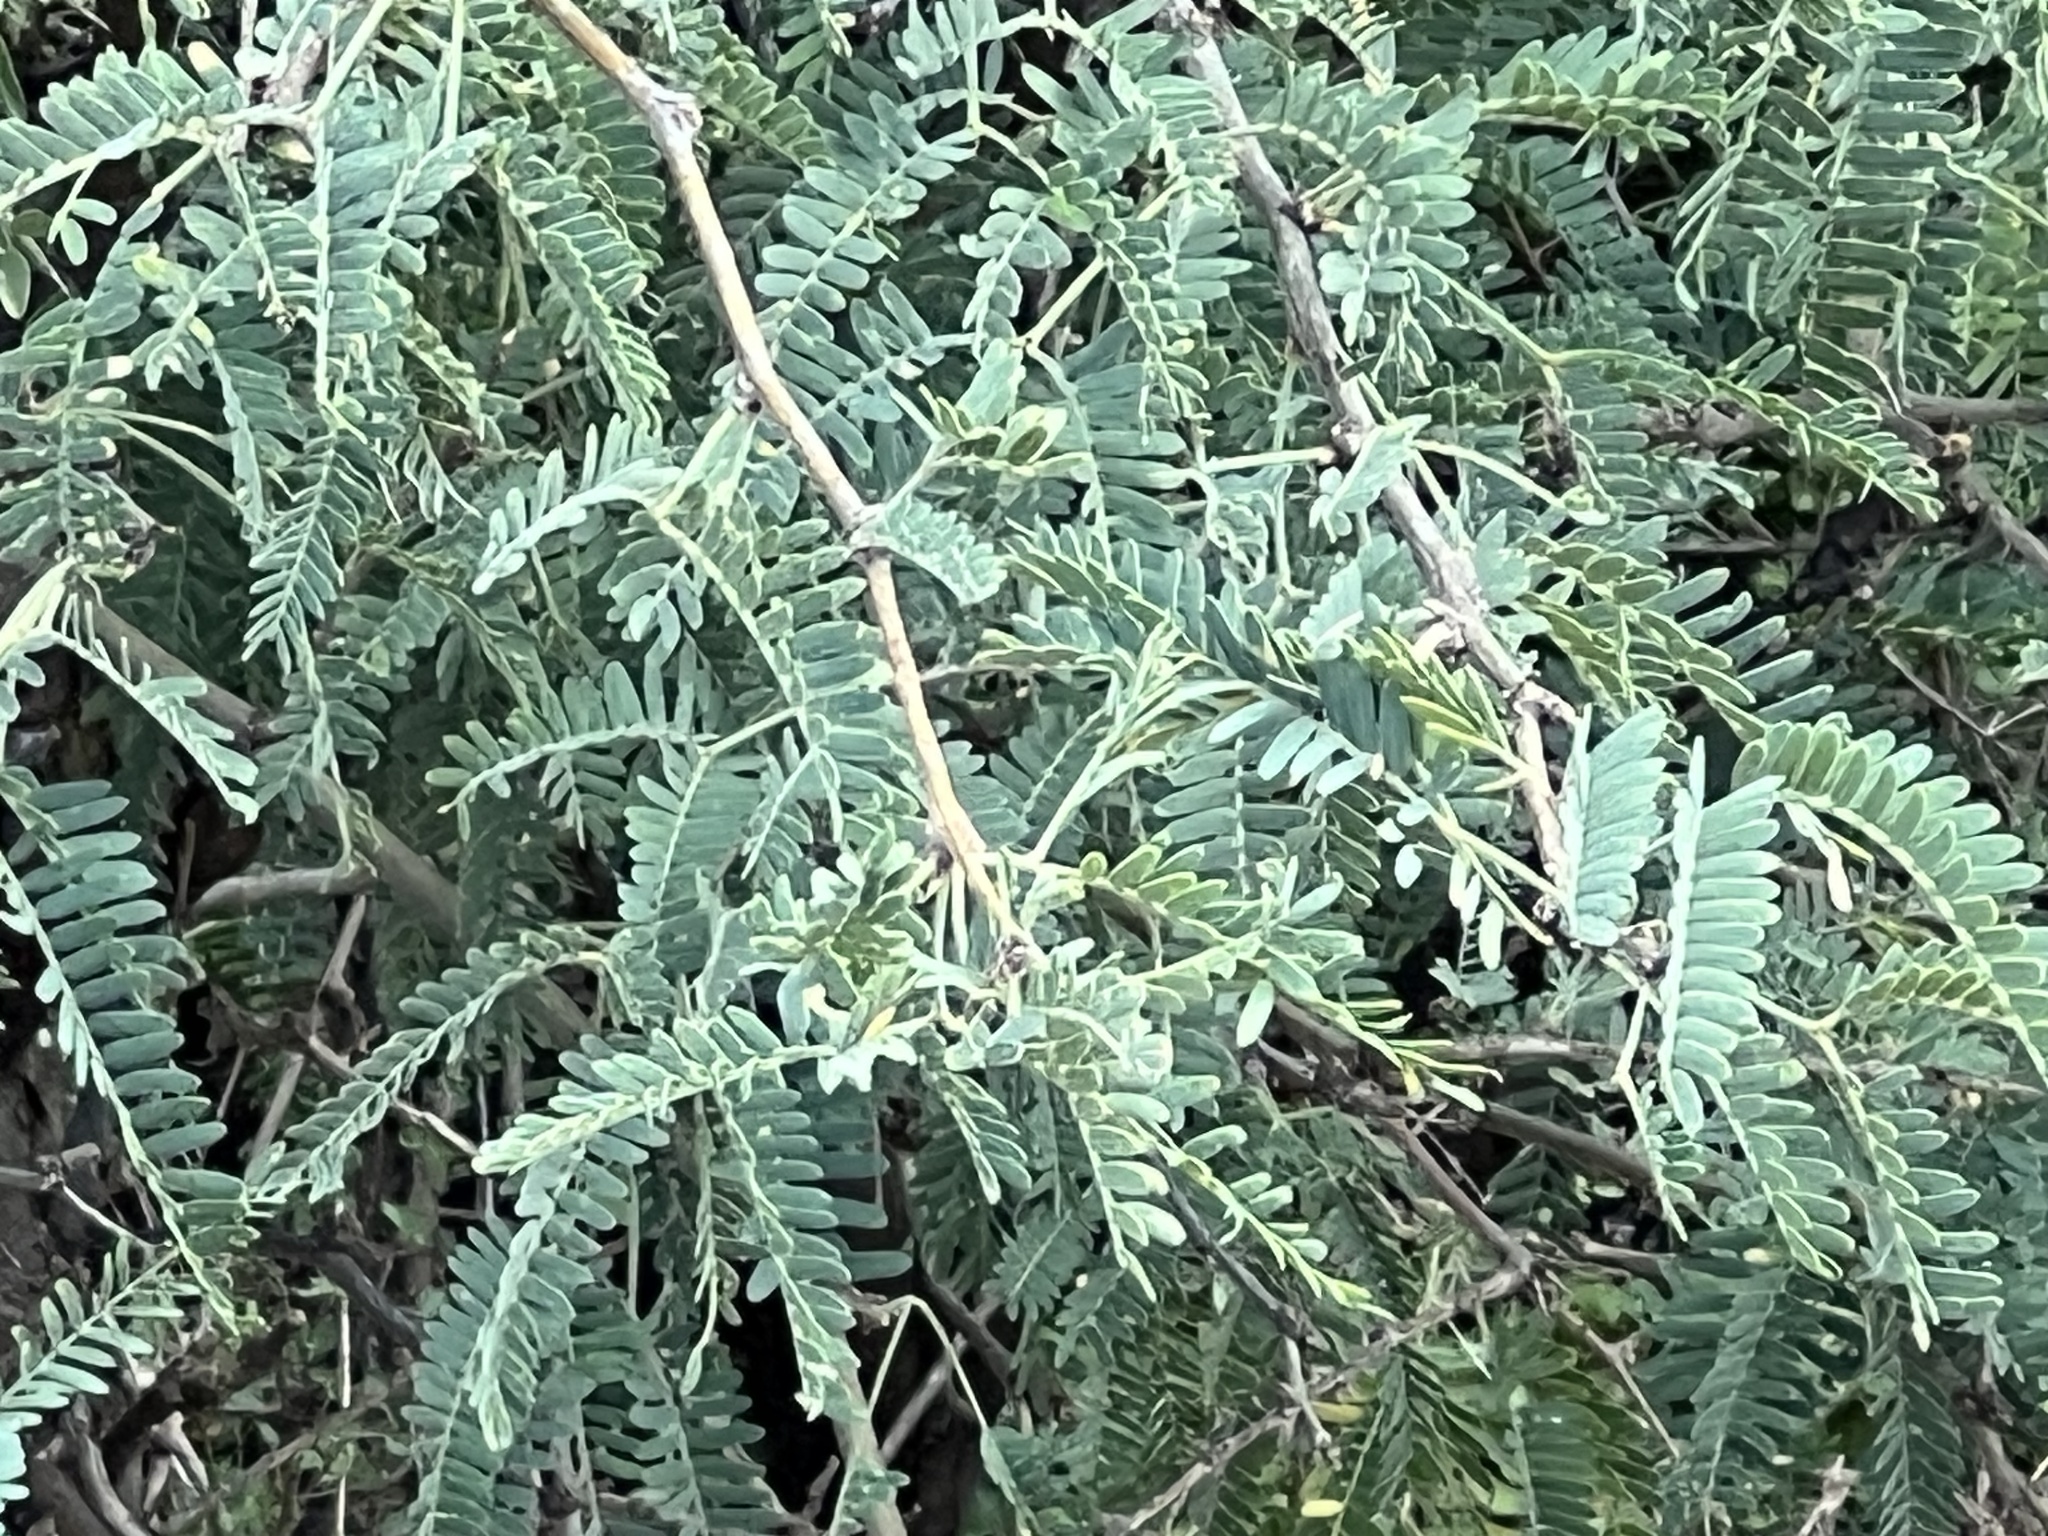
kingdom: Plantae
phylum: Tracheophyta
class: Magnoliopsida
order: Fabales
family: Fabaceae
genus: Prosopis
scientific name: Prosopis velutina
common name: Velvet mesquite
